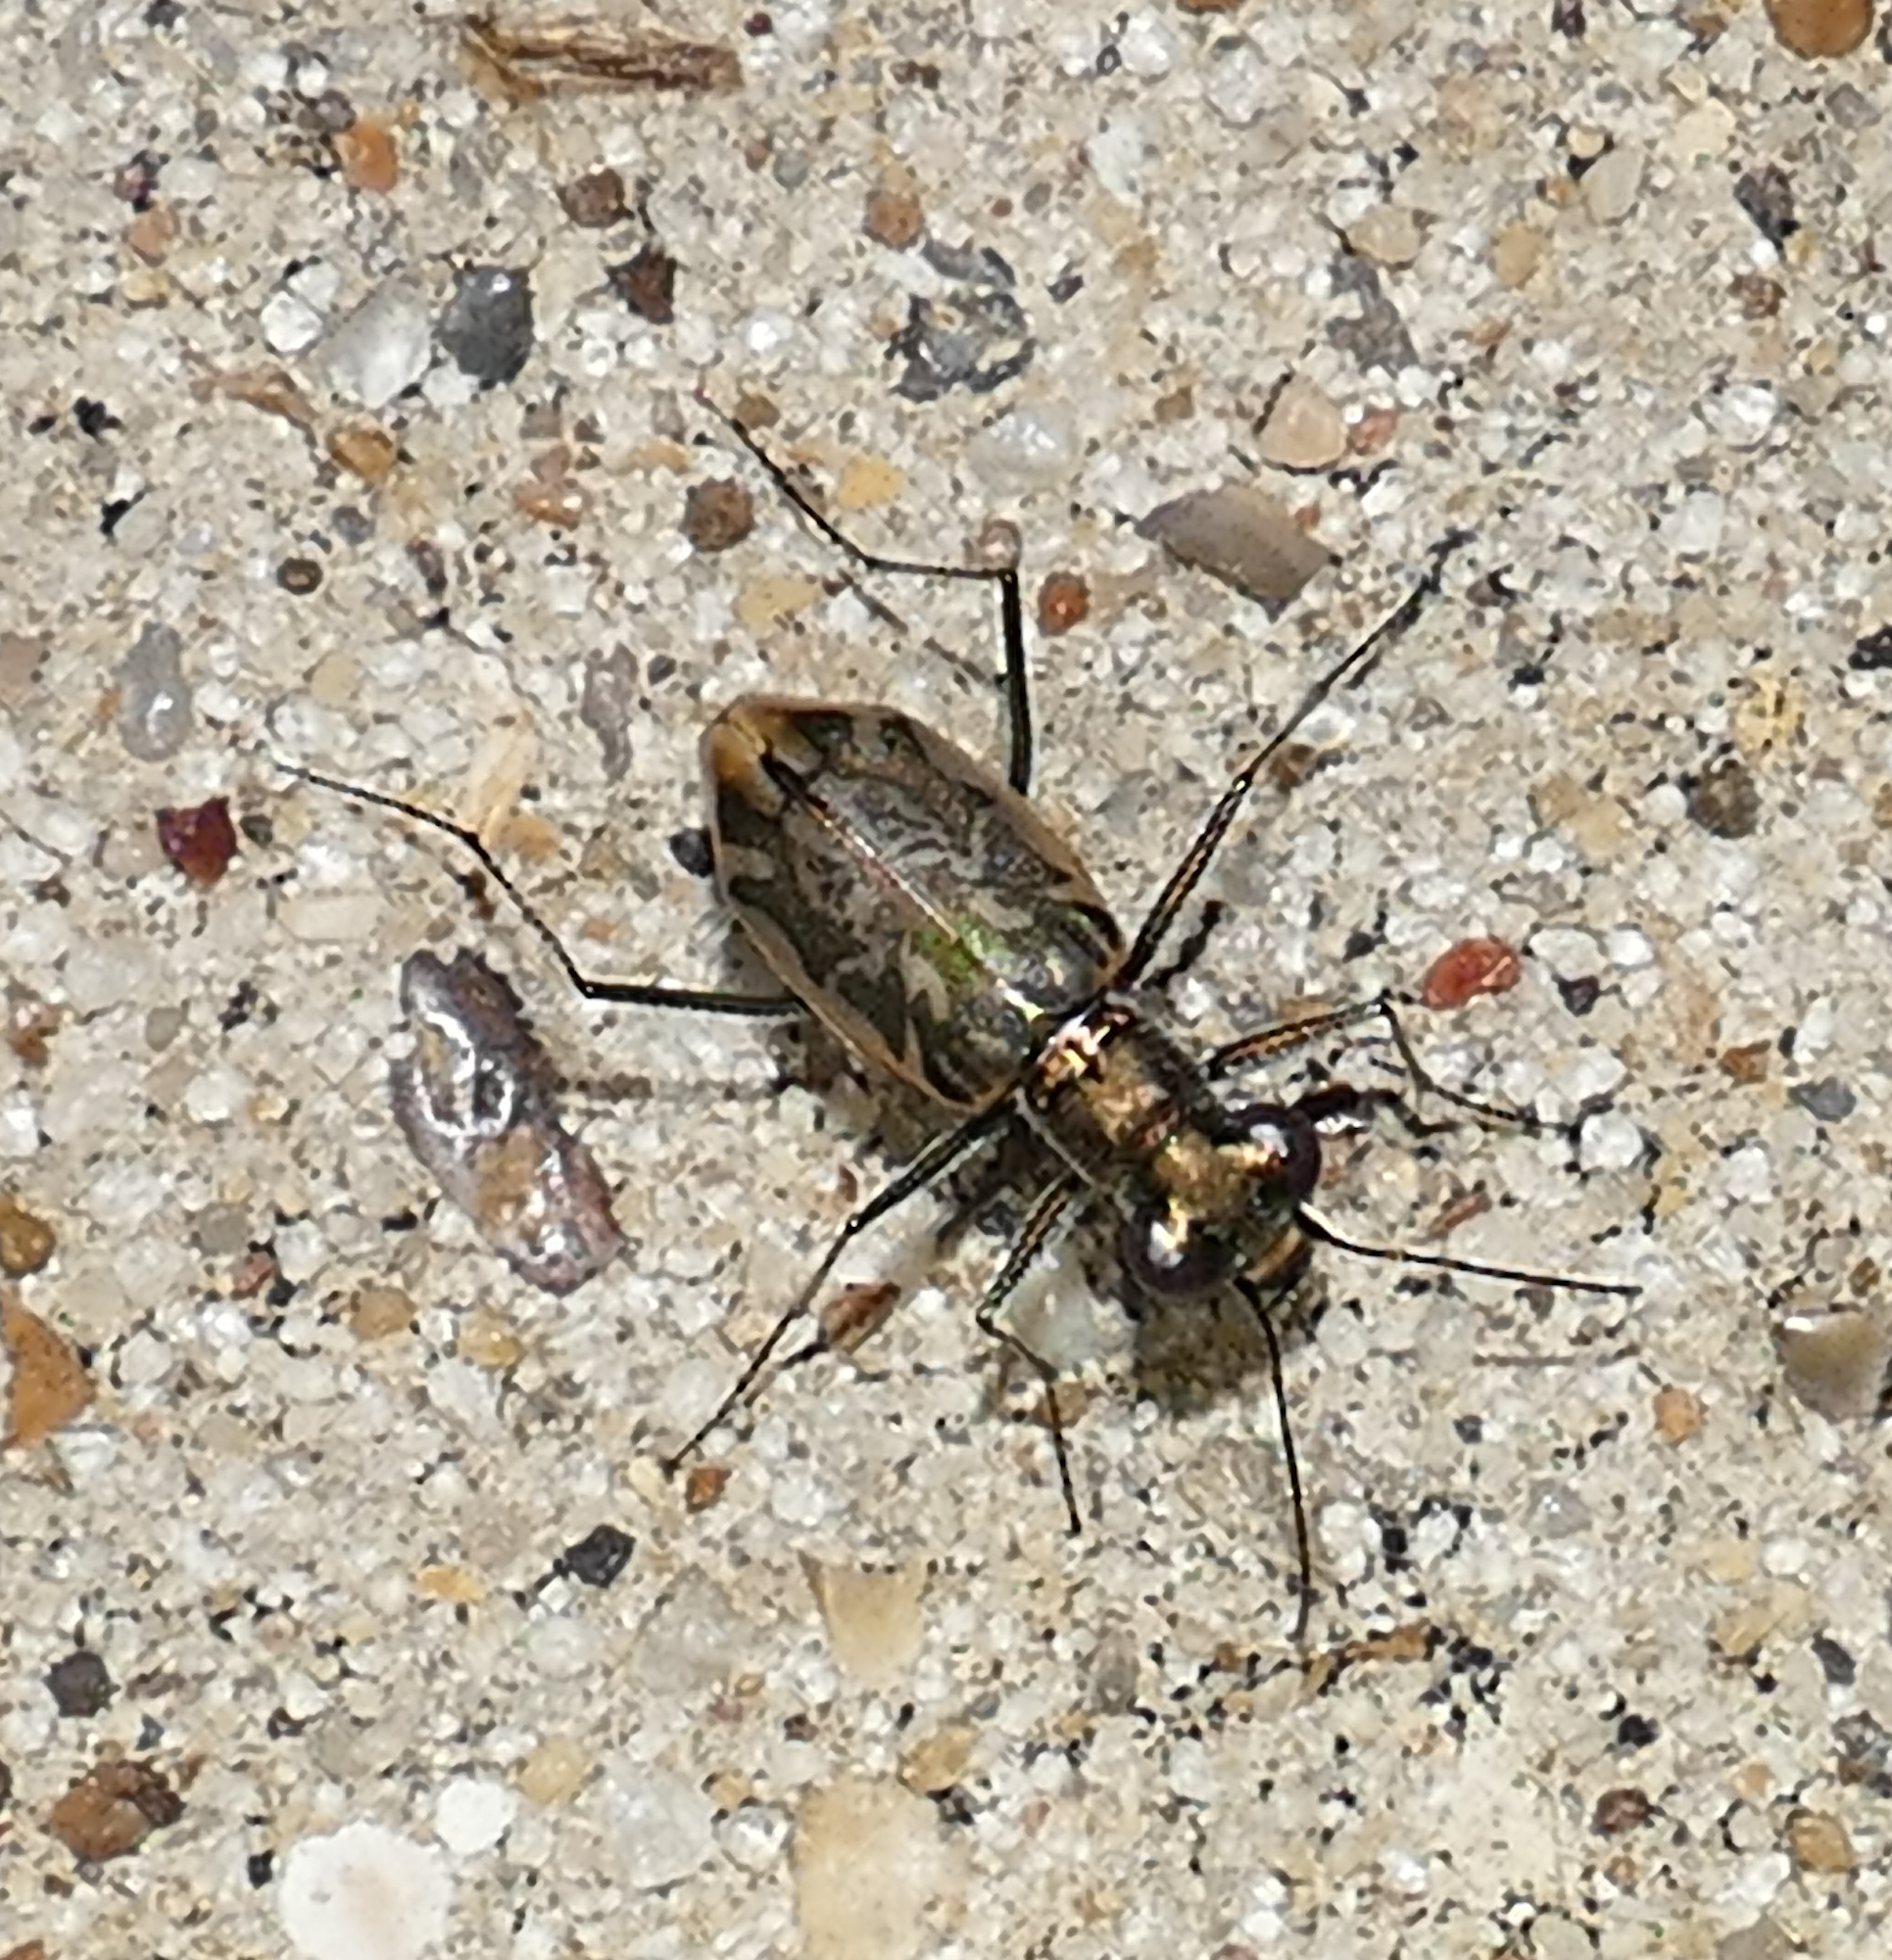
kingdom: Animalia
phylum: Arthropoda
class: Insecta
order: Coleoptera
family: Carabidae
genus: Ellipsoptera
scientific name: Ellipsoptera hamata
